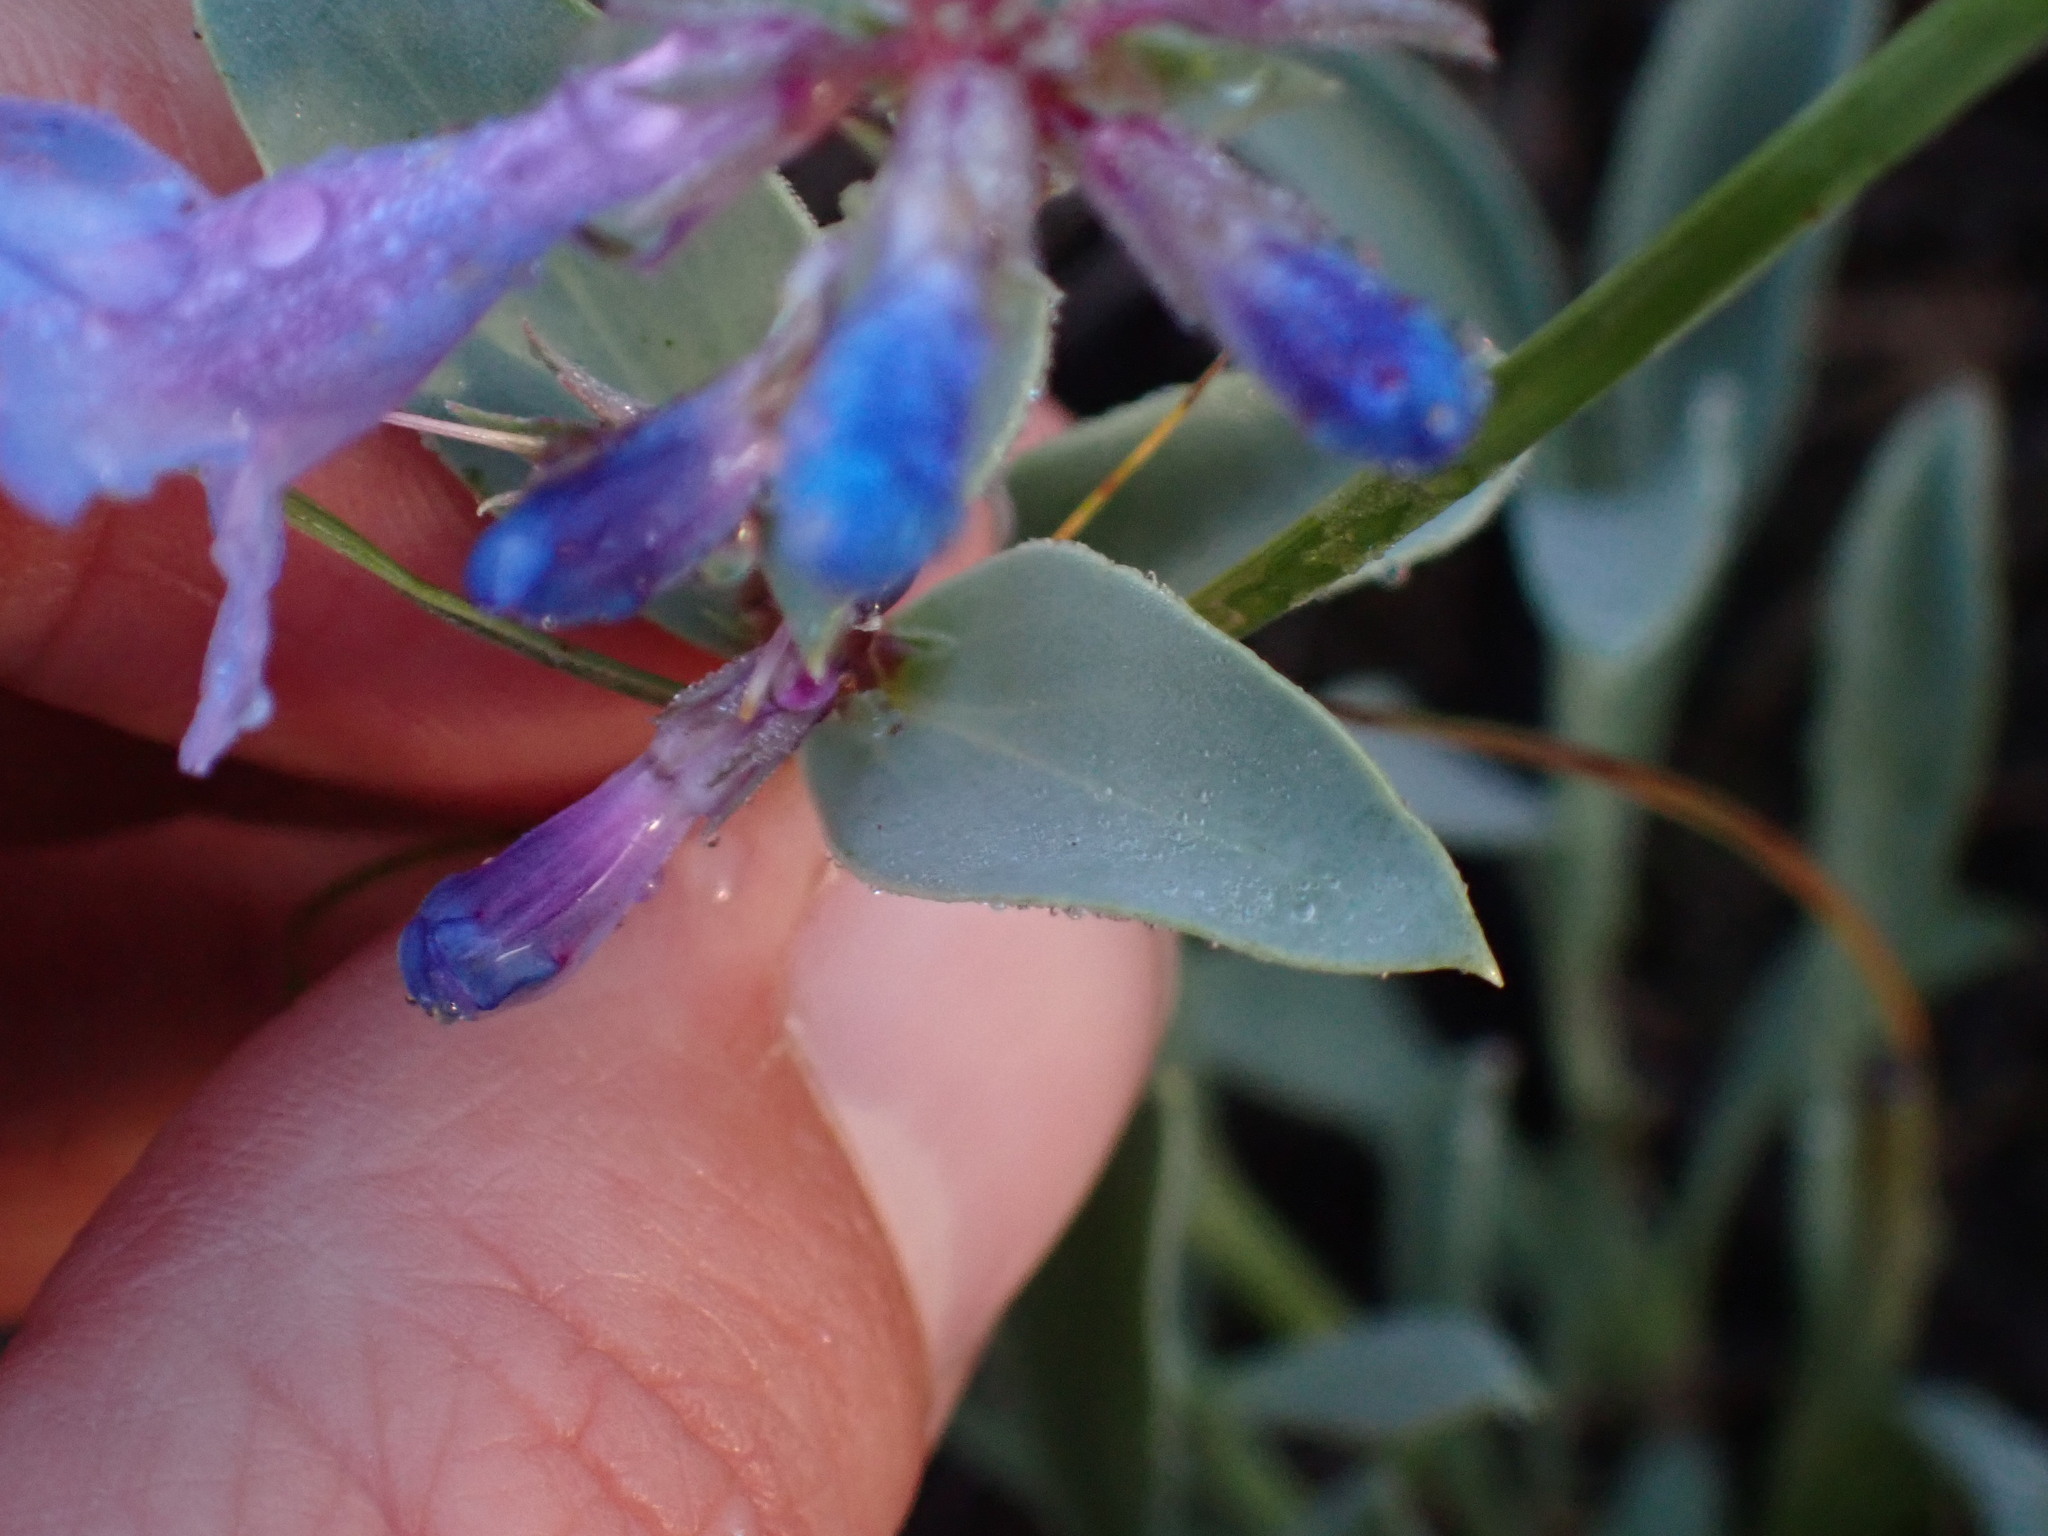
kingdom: Plantae
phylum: Tracheophyta
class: Magnoliopsida
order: Lamiales
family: Plantaginaceae
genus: Penstemon
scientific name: Penstemon nitidus
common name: Shining penstemon
